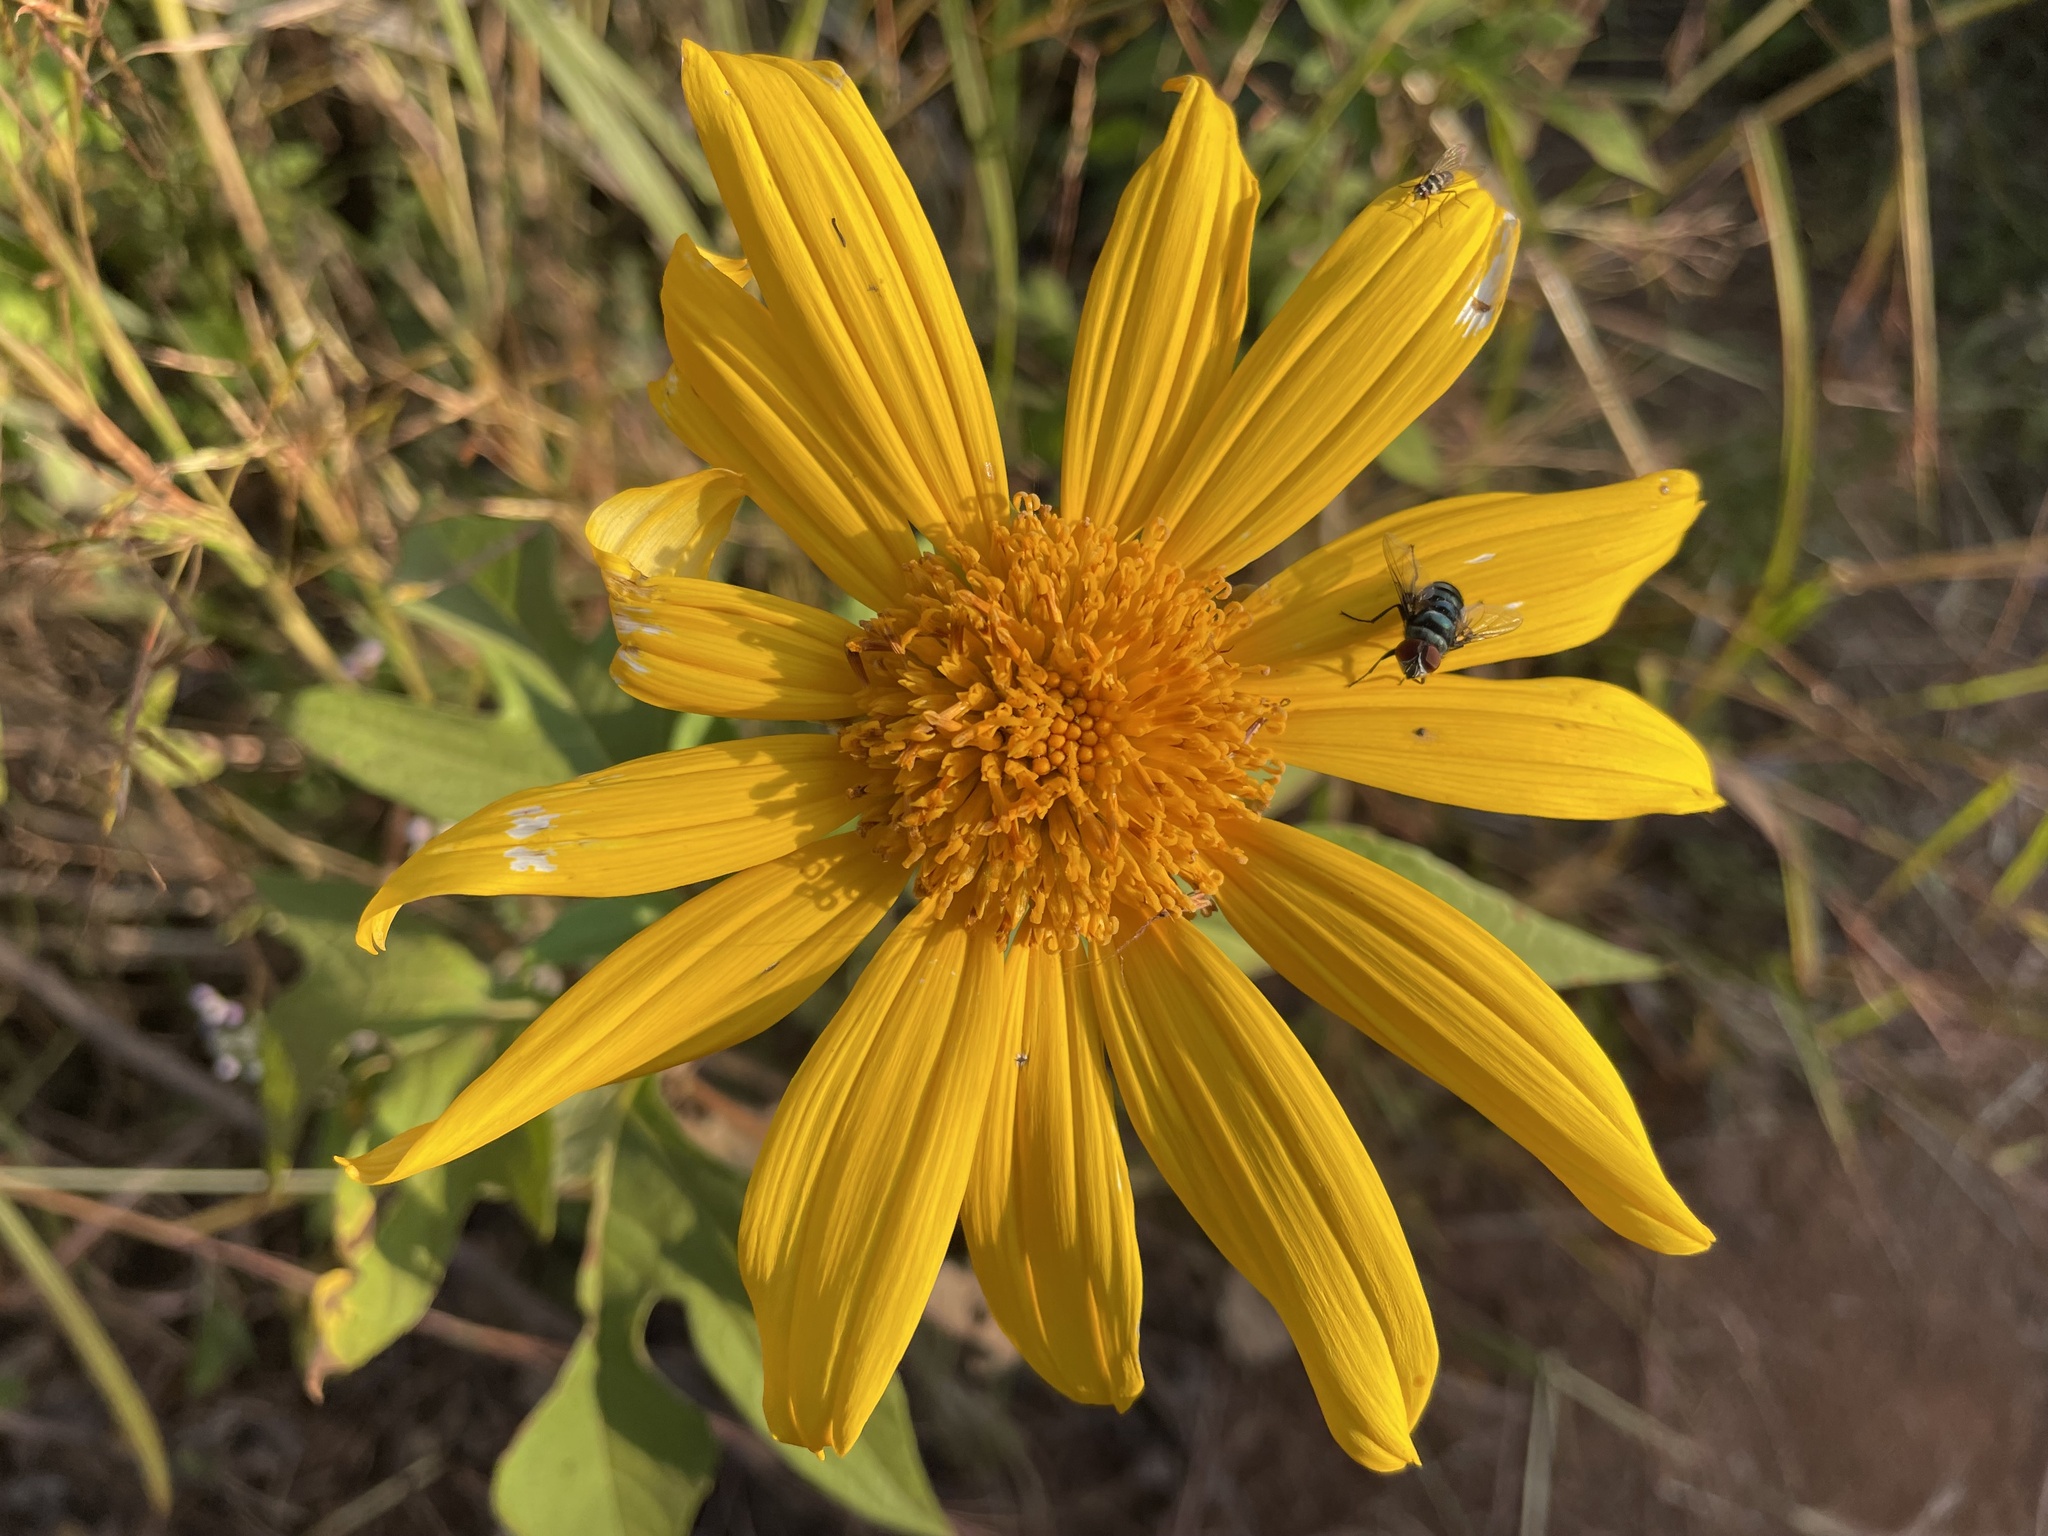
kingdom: Plantae
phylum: Tracheophyta
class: Magnoliopsida
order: Asterales
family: Asteraceae
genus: Tithonia
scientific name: Tithonia diversifolia
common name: Tree marigold
